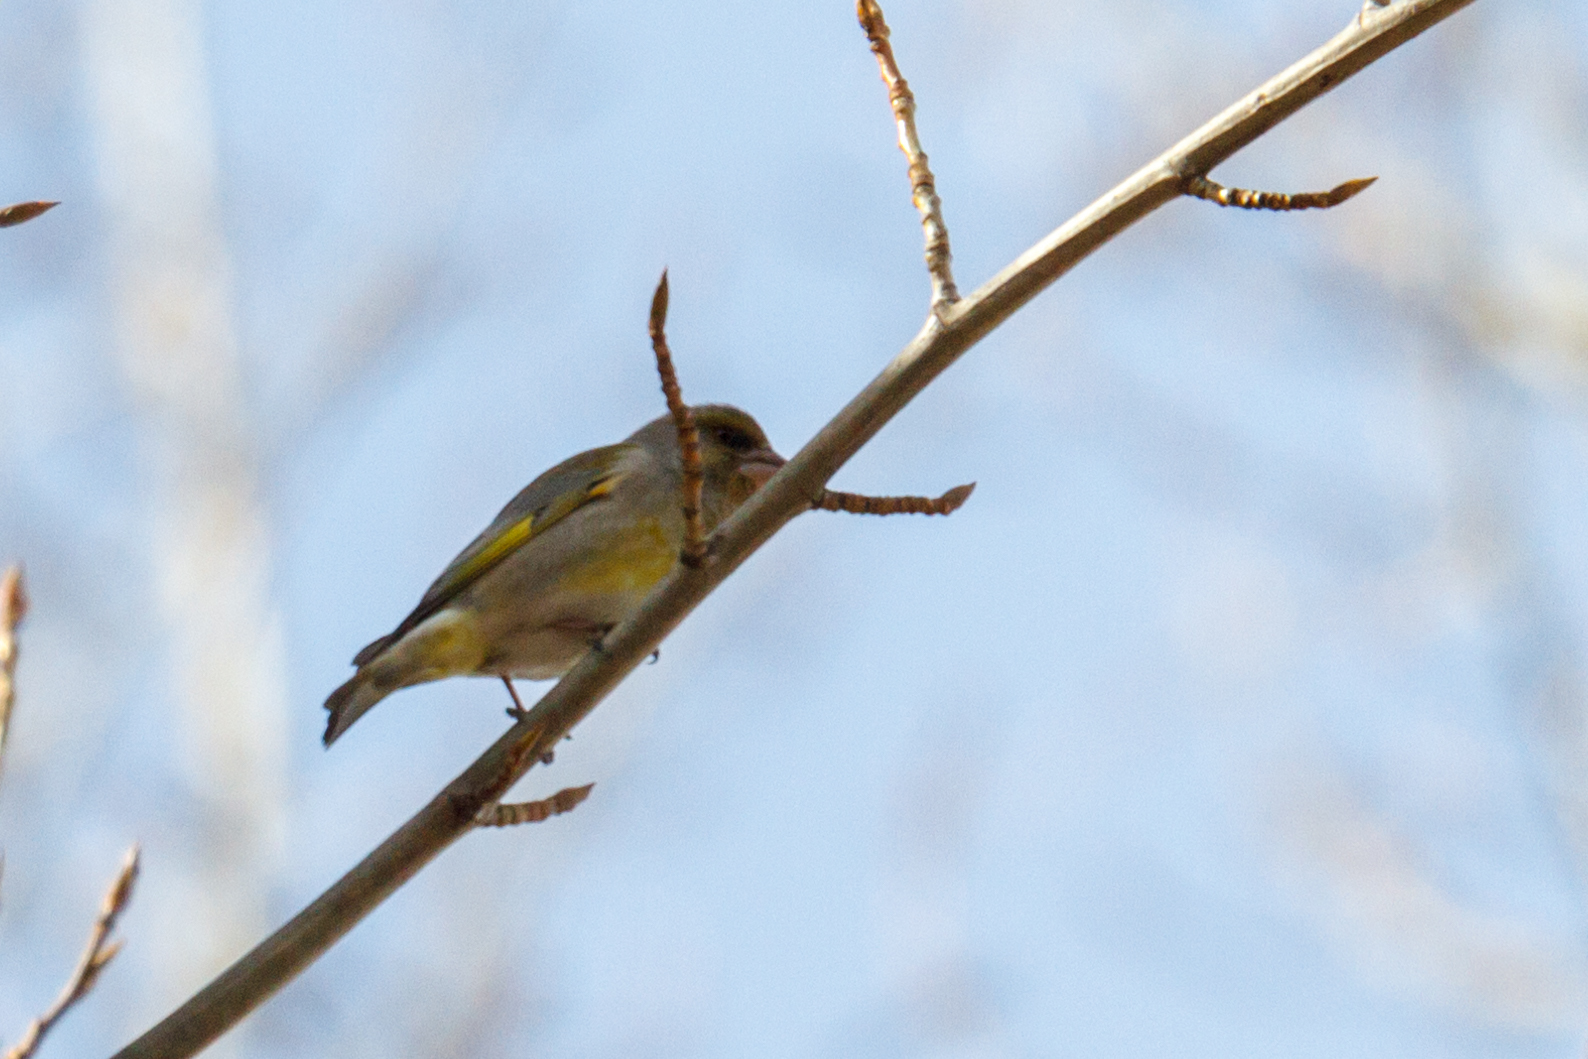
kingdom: Plantae
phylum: Tracheophyta
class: Liliopsida
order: Poales
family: Poaceae
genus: Chloris
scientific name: Chloris chloris
